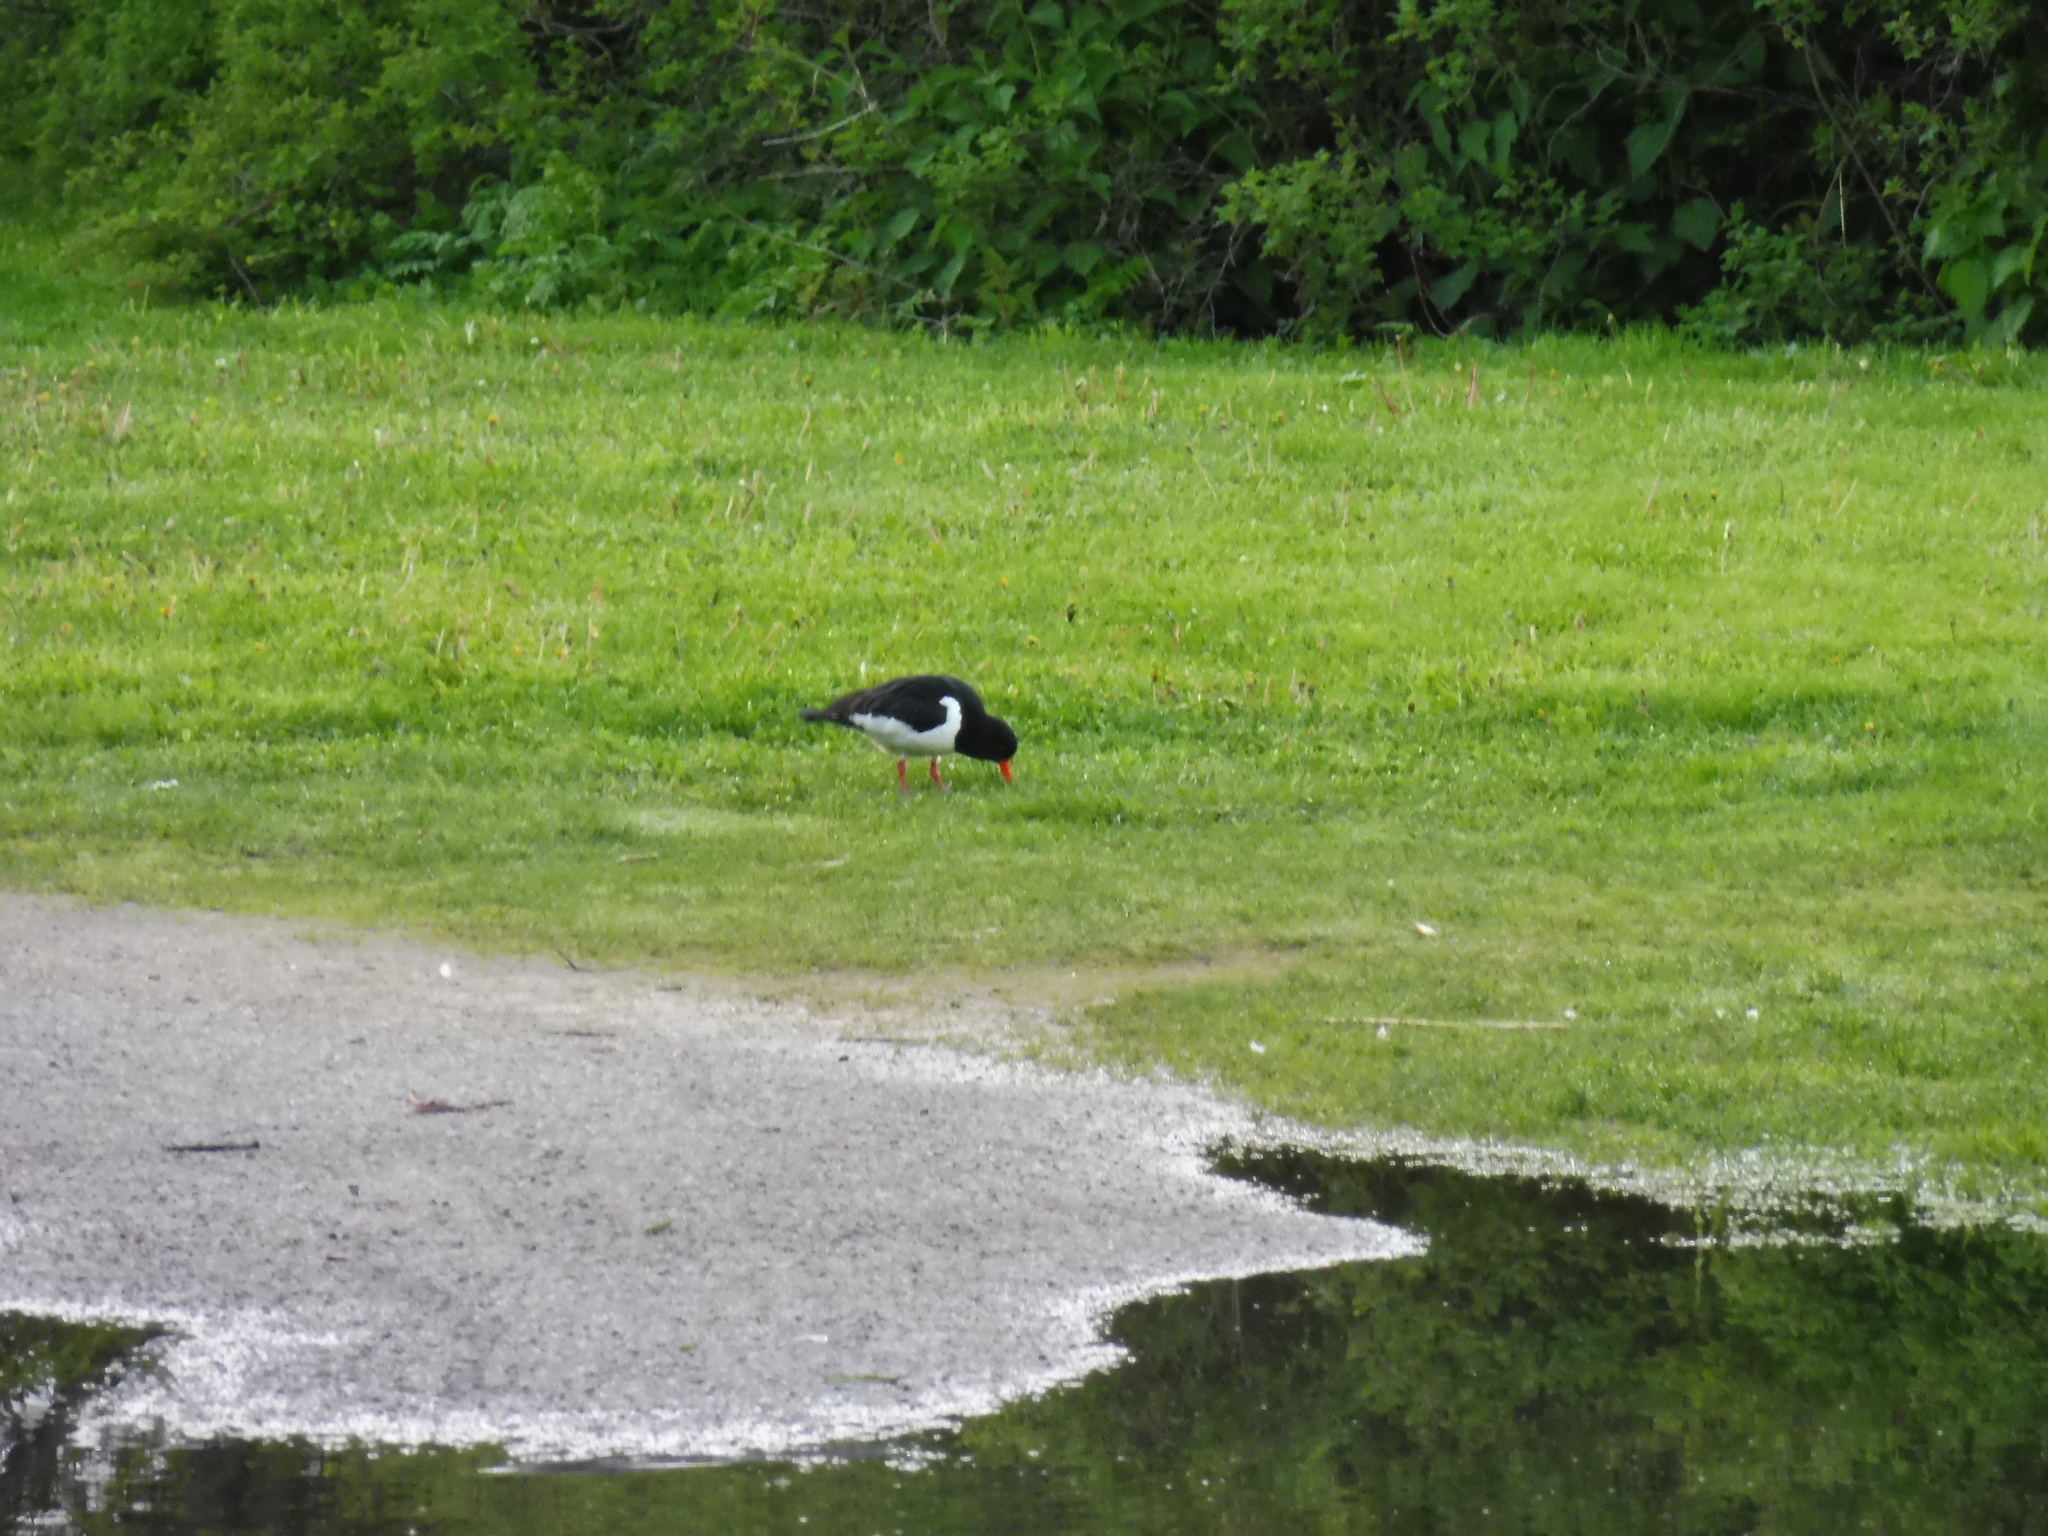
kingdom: Animalia
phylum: Chordata
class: Aves
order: Charadriiformes
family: Haematopodidae
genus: Haematopus
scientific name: Haematopus ostralegus
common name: Eurasian oystercatcher
